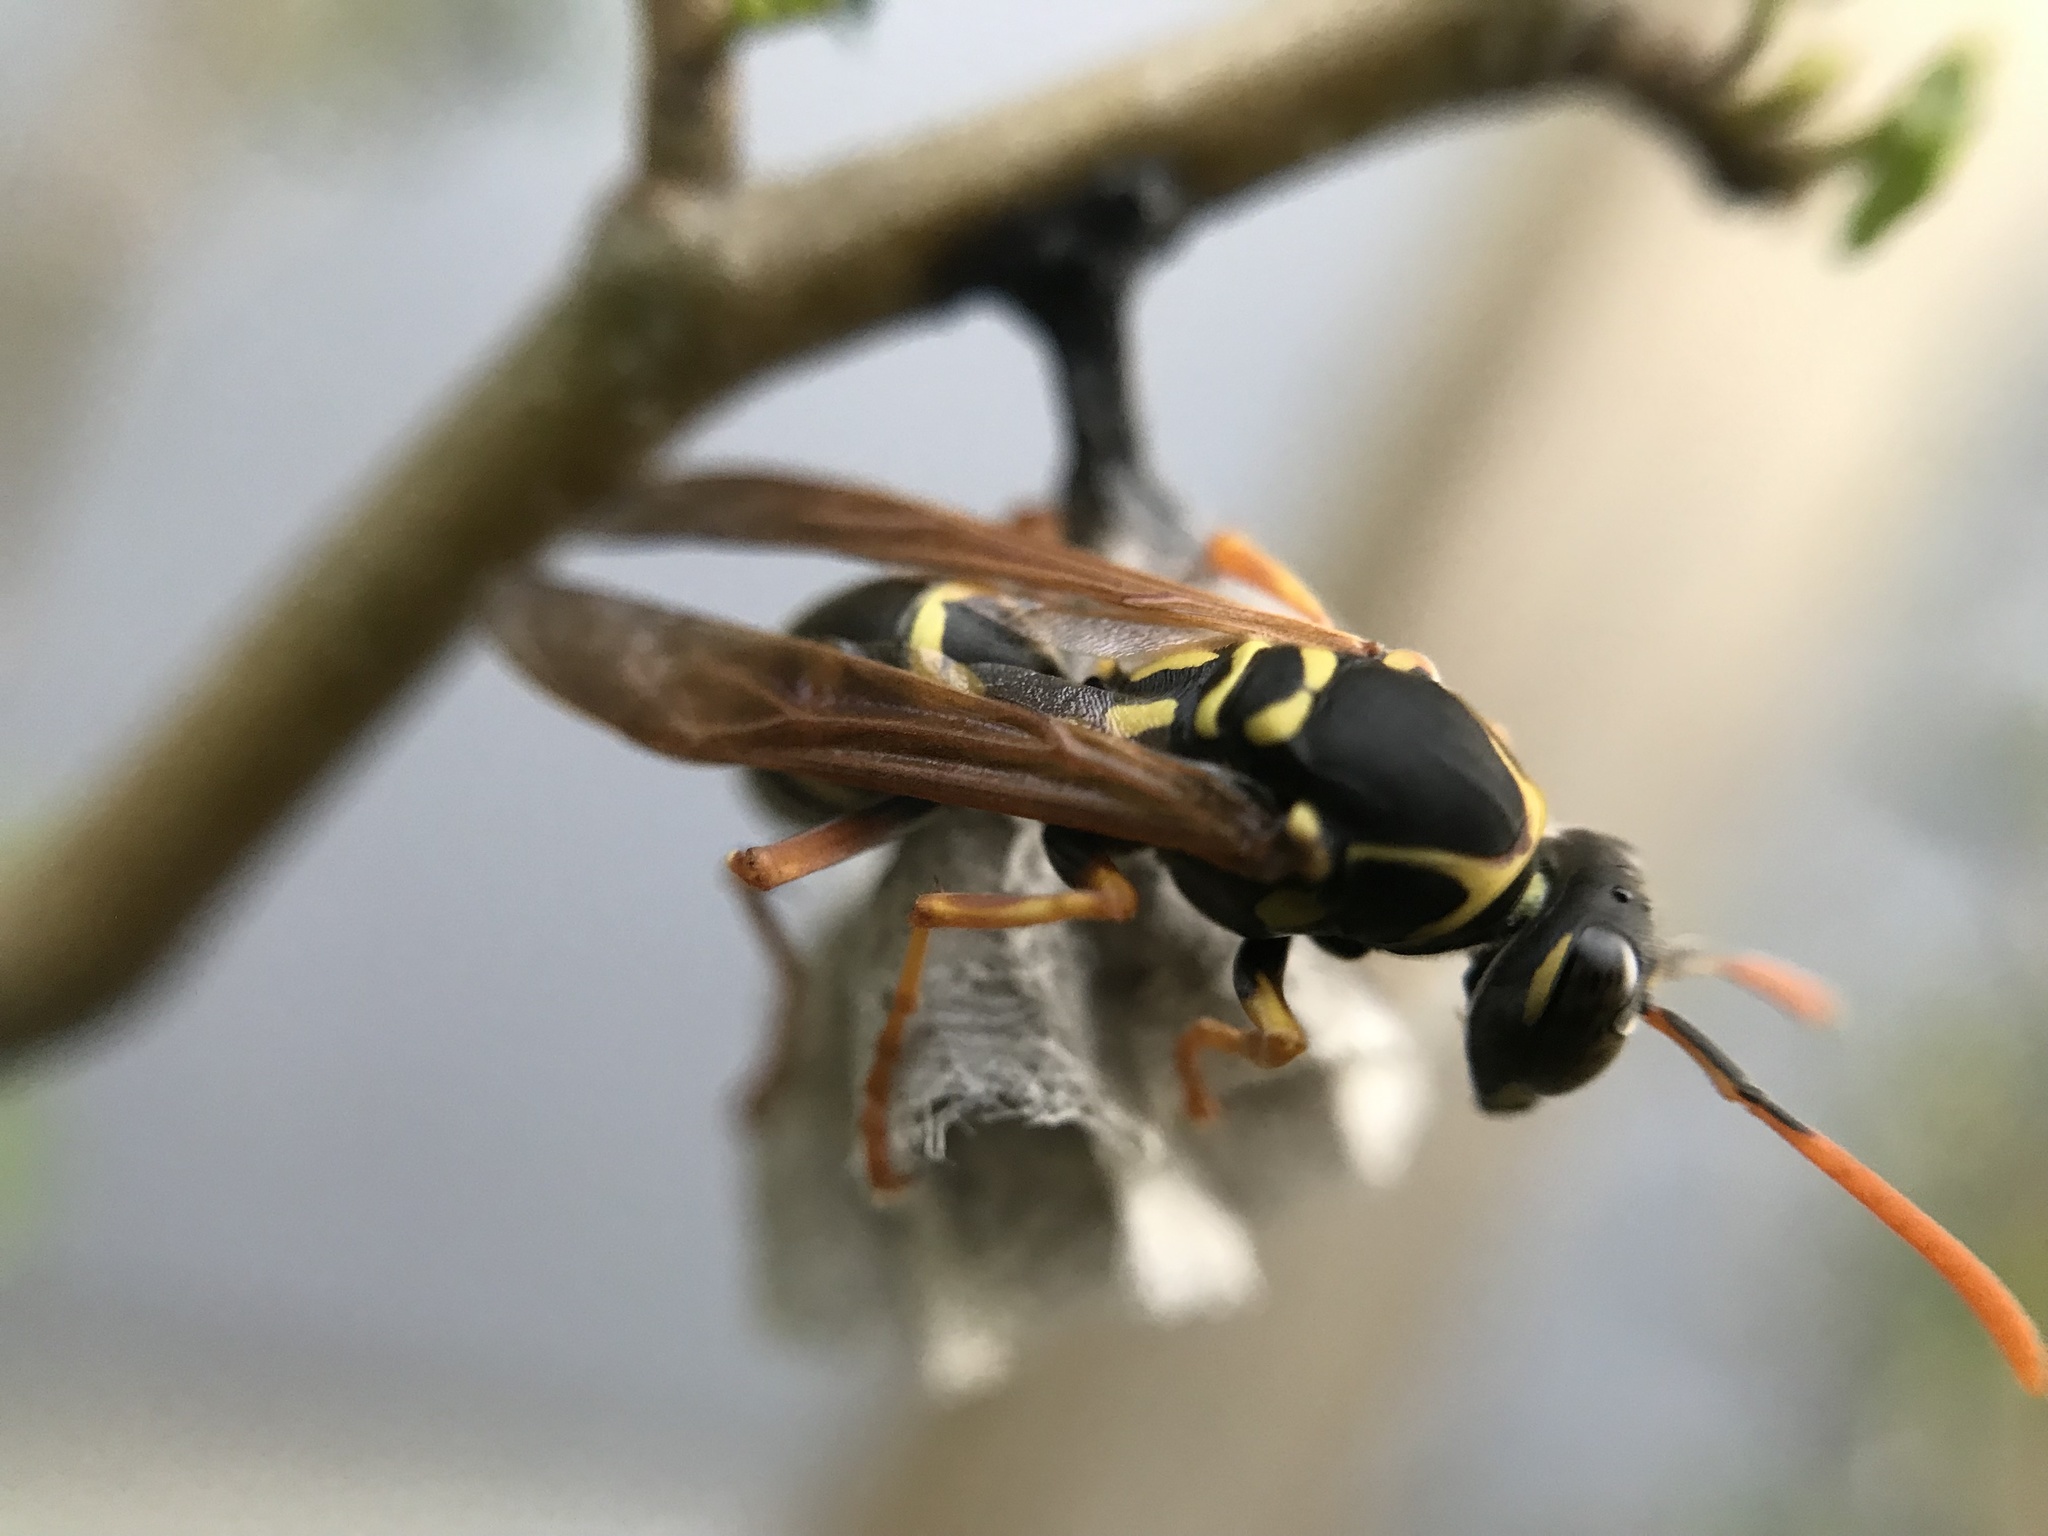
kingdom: Animalia
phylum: Arthropoda
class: Insecta
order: Hymenoptera
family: Eumenidae
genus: Polistes
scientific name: Polistes chinensis
